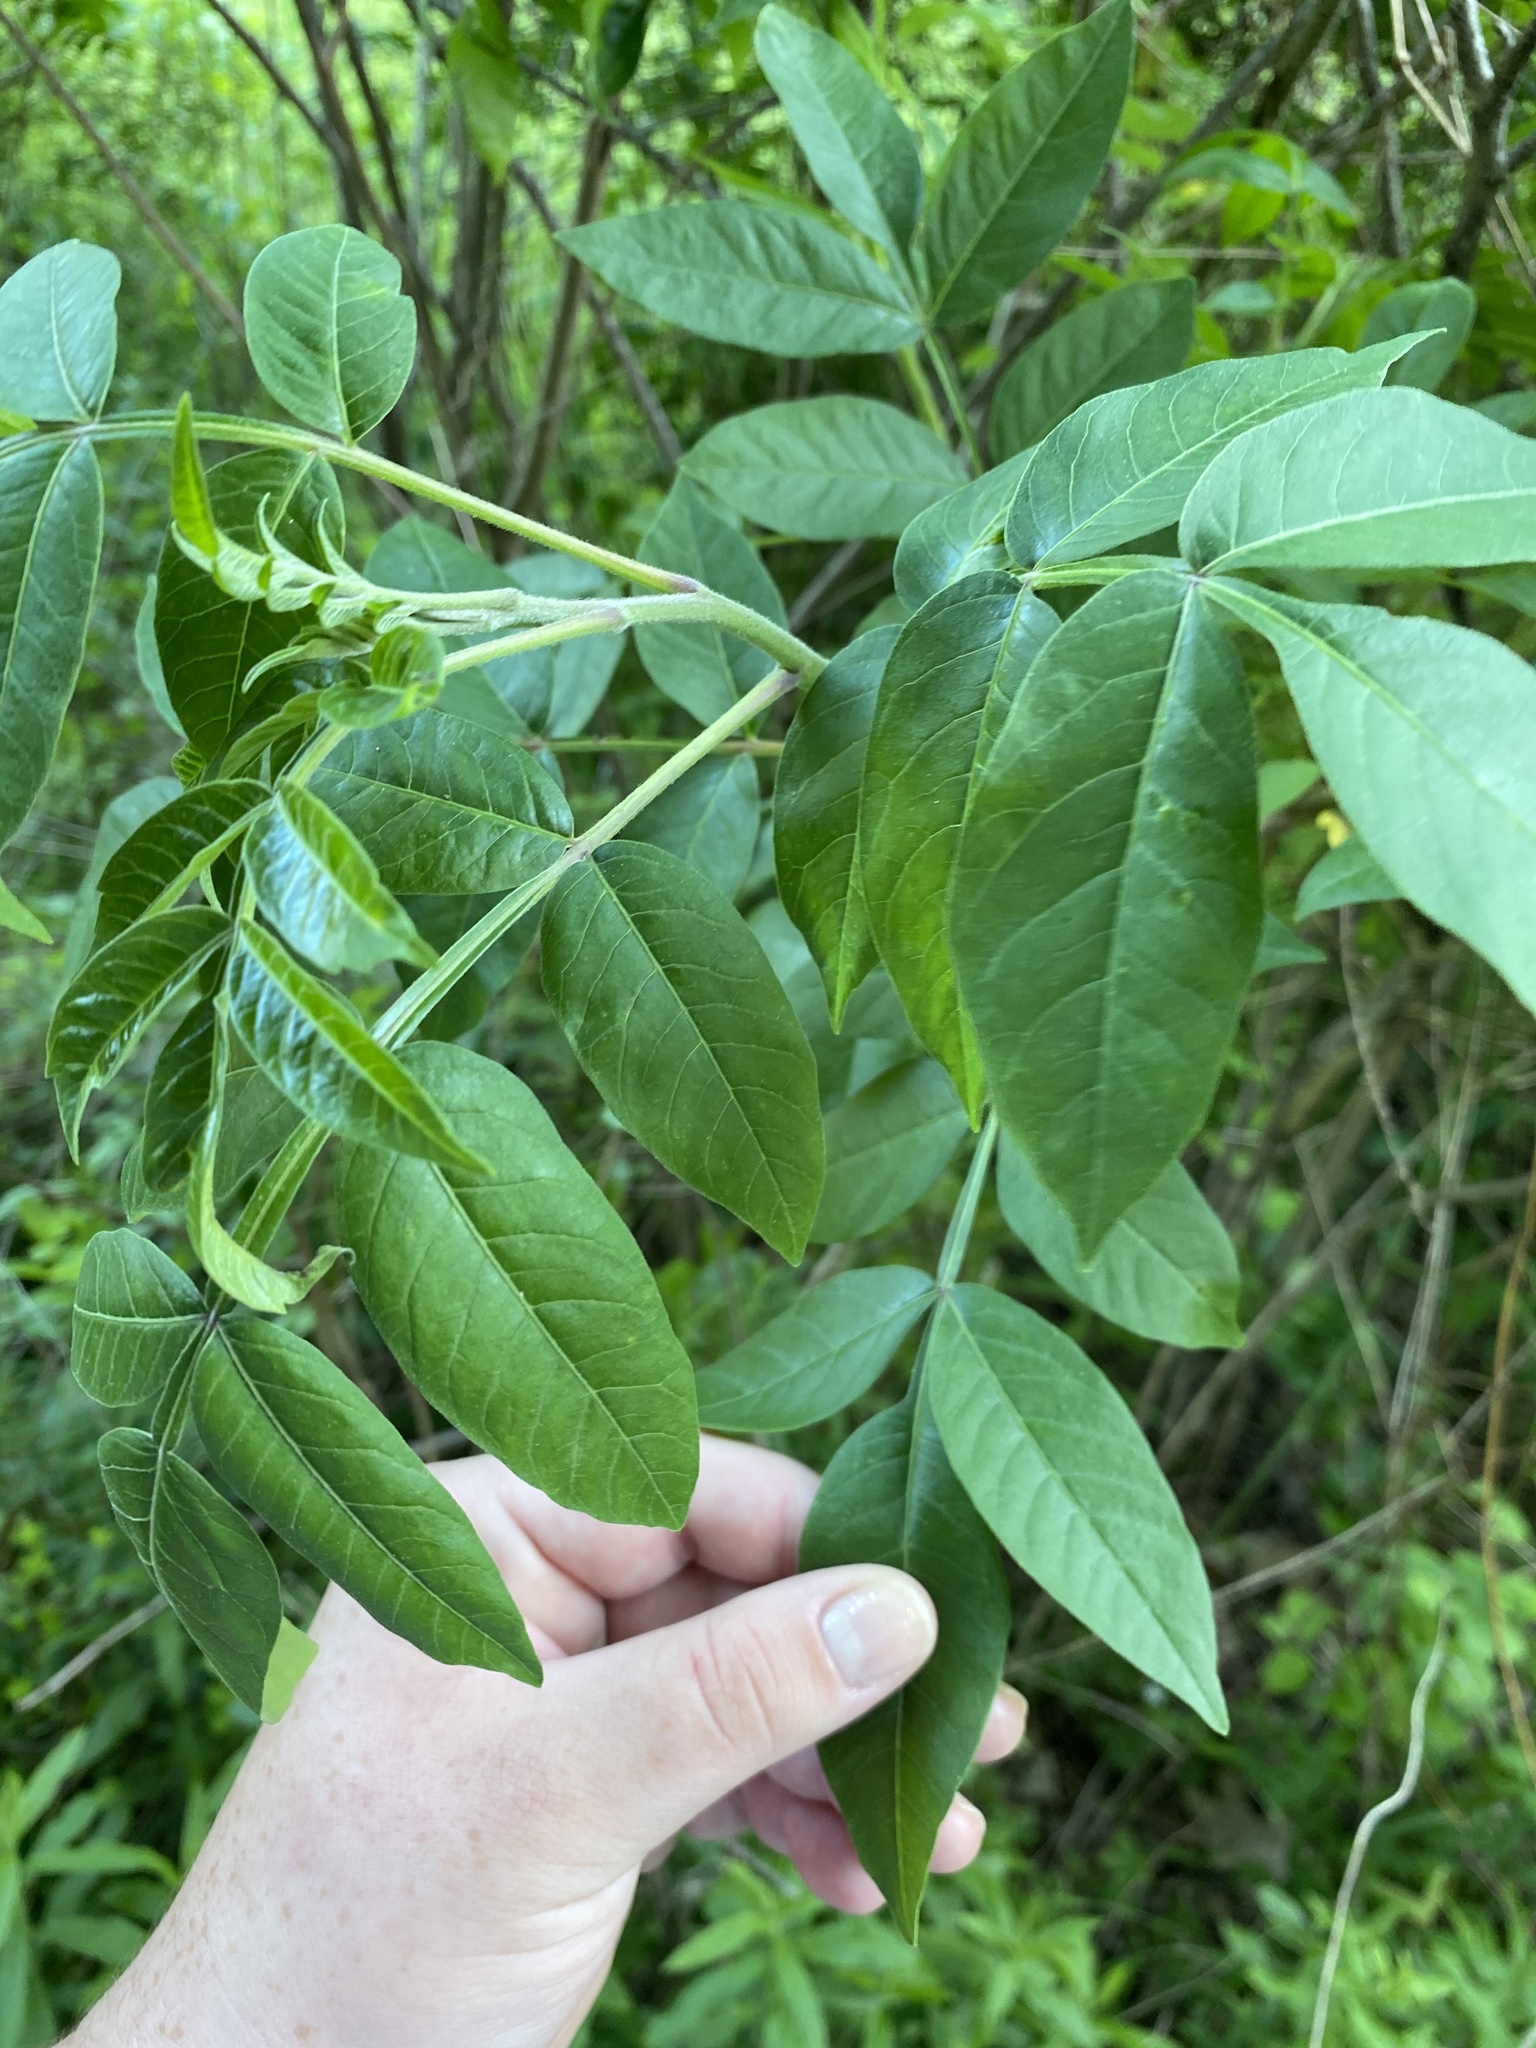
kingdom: Plantae
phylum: Tracheophyta
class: Magnoliopsida
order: Sapindales
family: Anacardiaceae
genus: Rhus
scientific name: Rhus copallina
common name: Shining sumac
